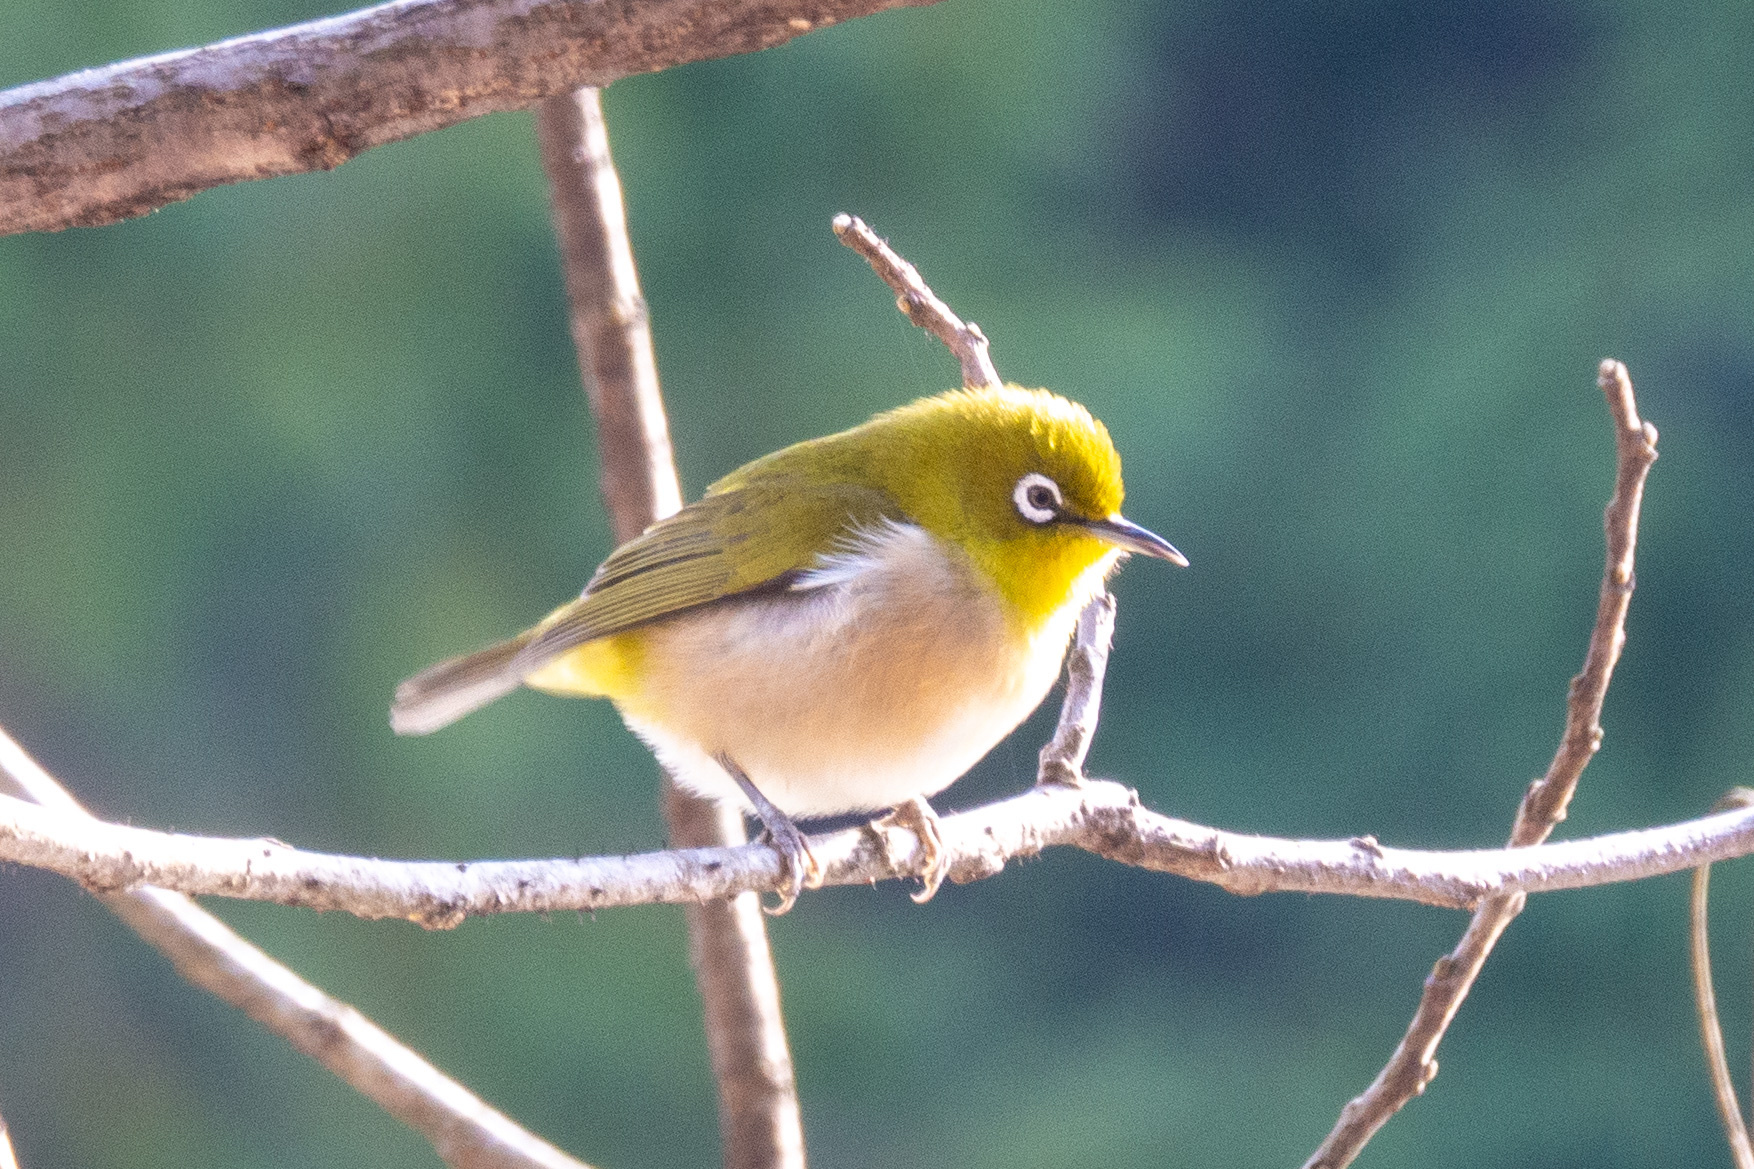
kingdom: Animalia
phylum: Chordata
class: Aves
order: Passeriformes
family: Zosteropidae
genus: Zosterops
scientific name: Zosterops japonicus
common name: Japanese white-eye
